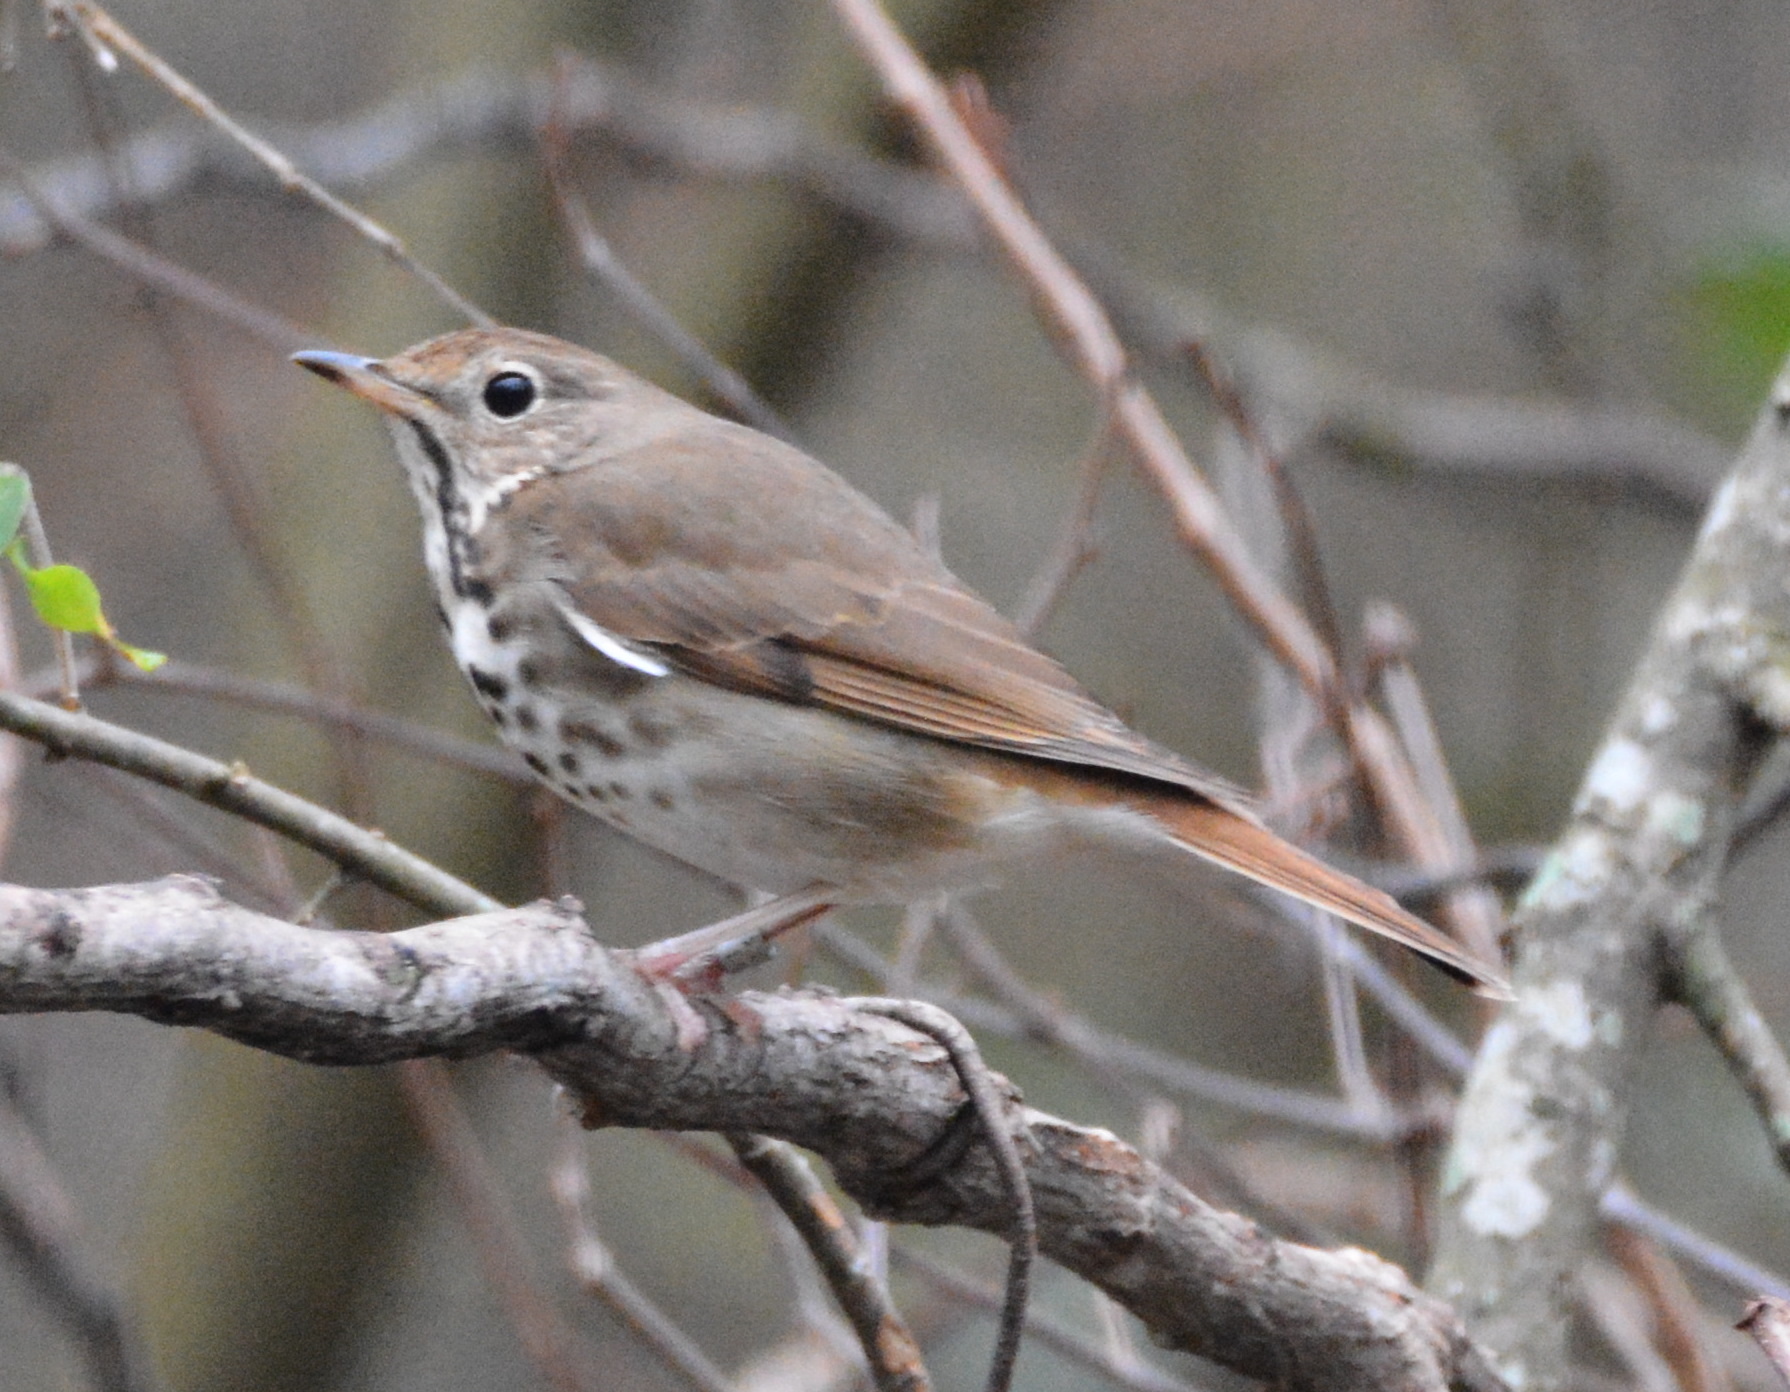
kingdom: Animalia
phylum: Chordata
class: Aves
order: Passeriformes
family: Turdidae
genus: Catharus
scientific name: Catharus guttatus
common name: Hermit thrush
